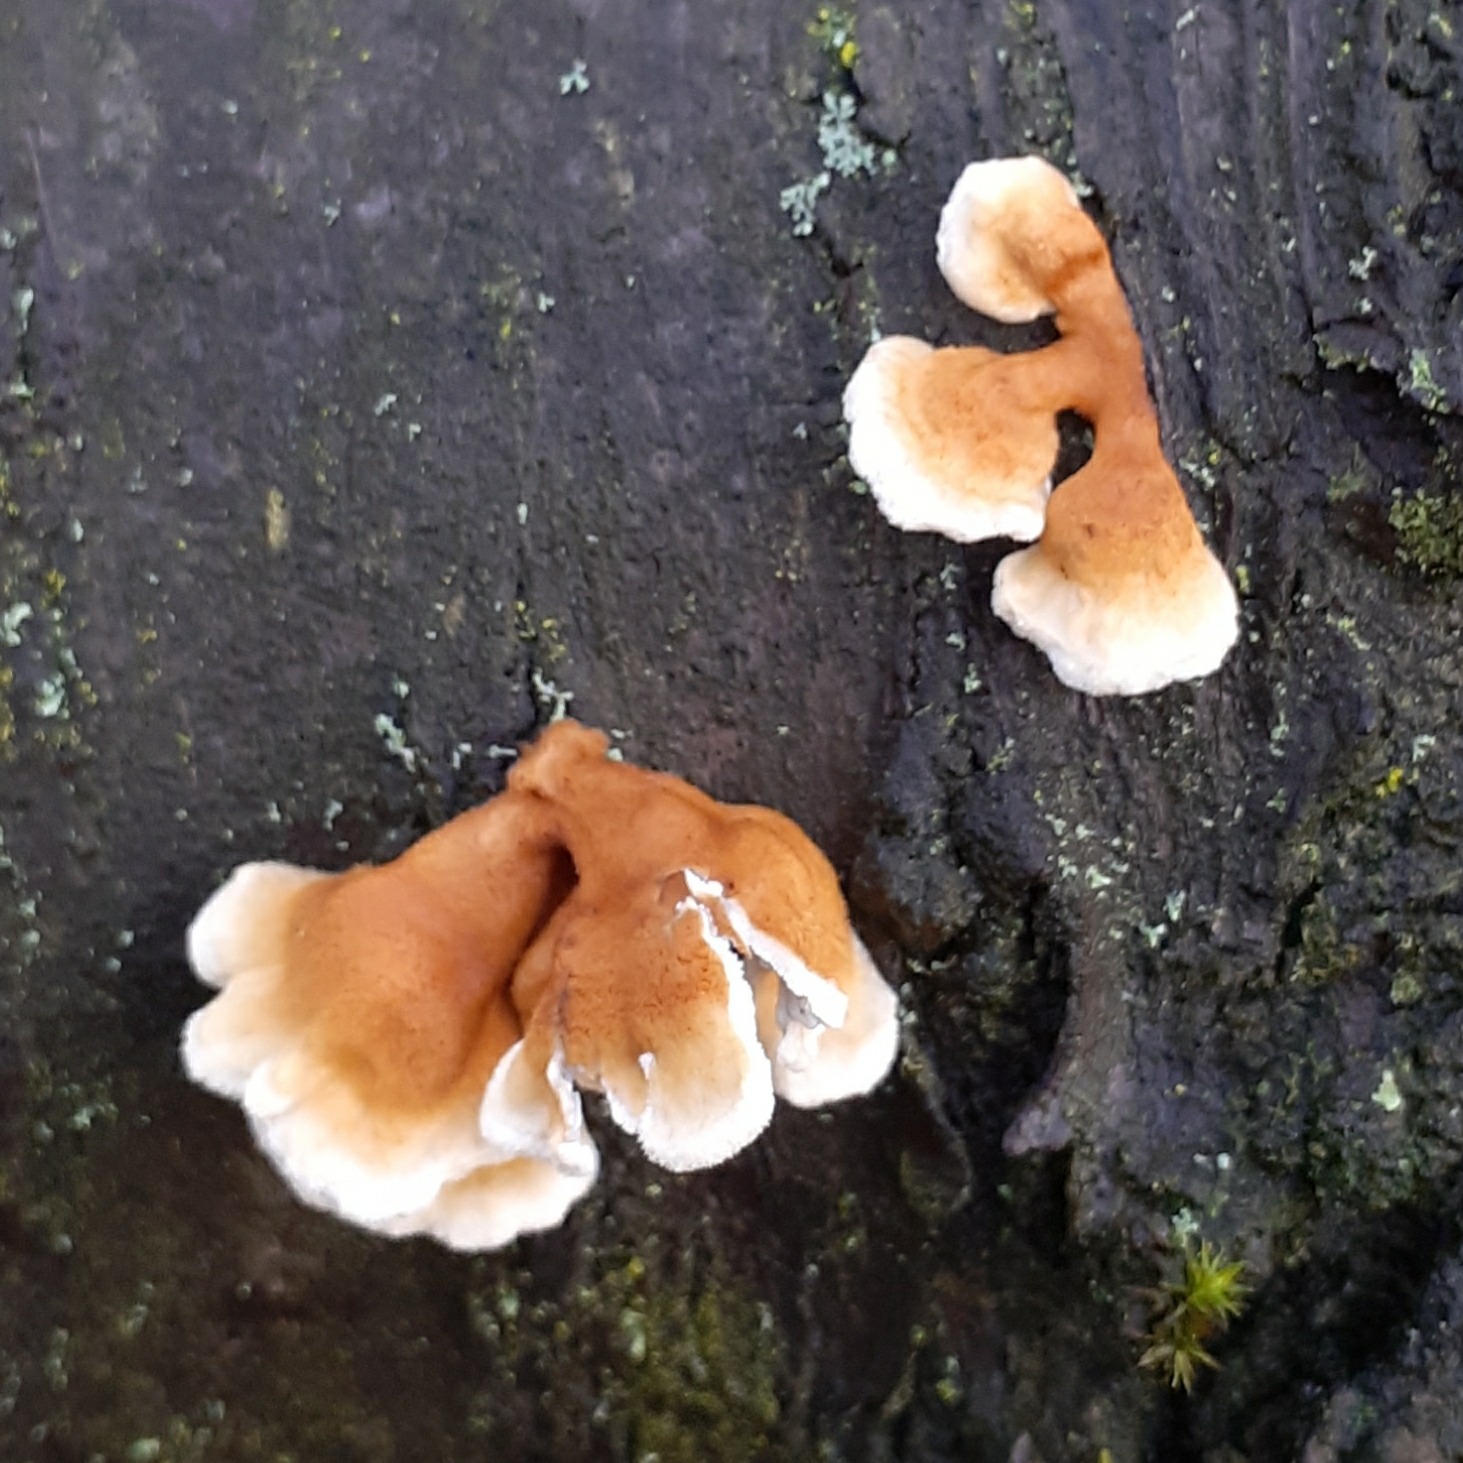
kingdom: Fungi
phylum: Basidiomycota
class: Agaricomycetes
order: Amylocorticiales
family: Amylocorticiaceae
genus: Plicaturopsis
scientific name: Plicaturopsis crispa
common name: Crimped gill
